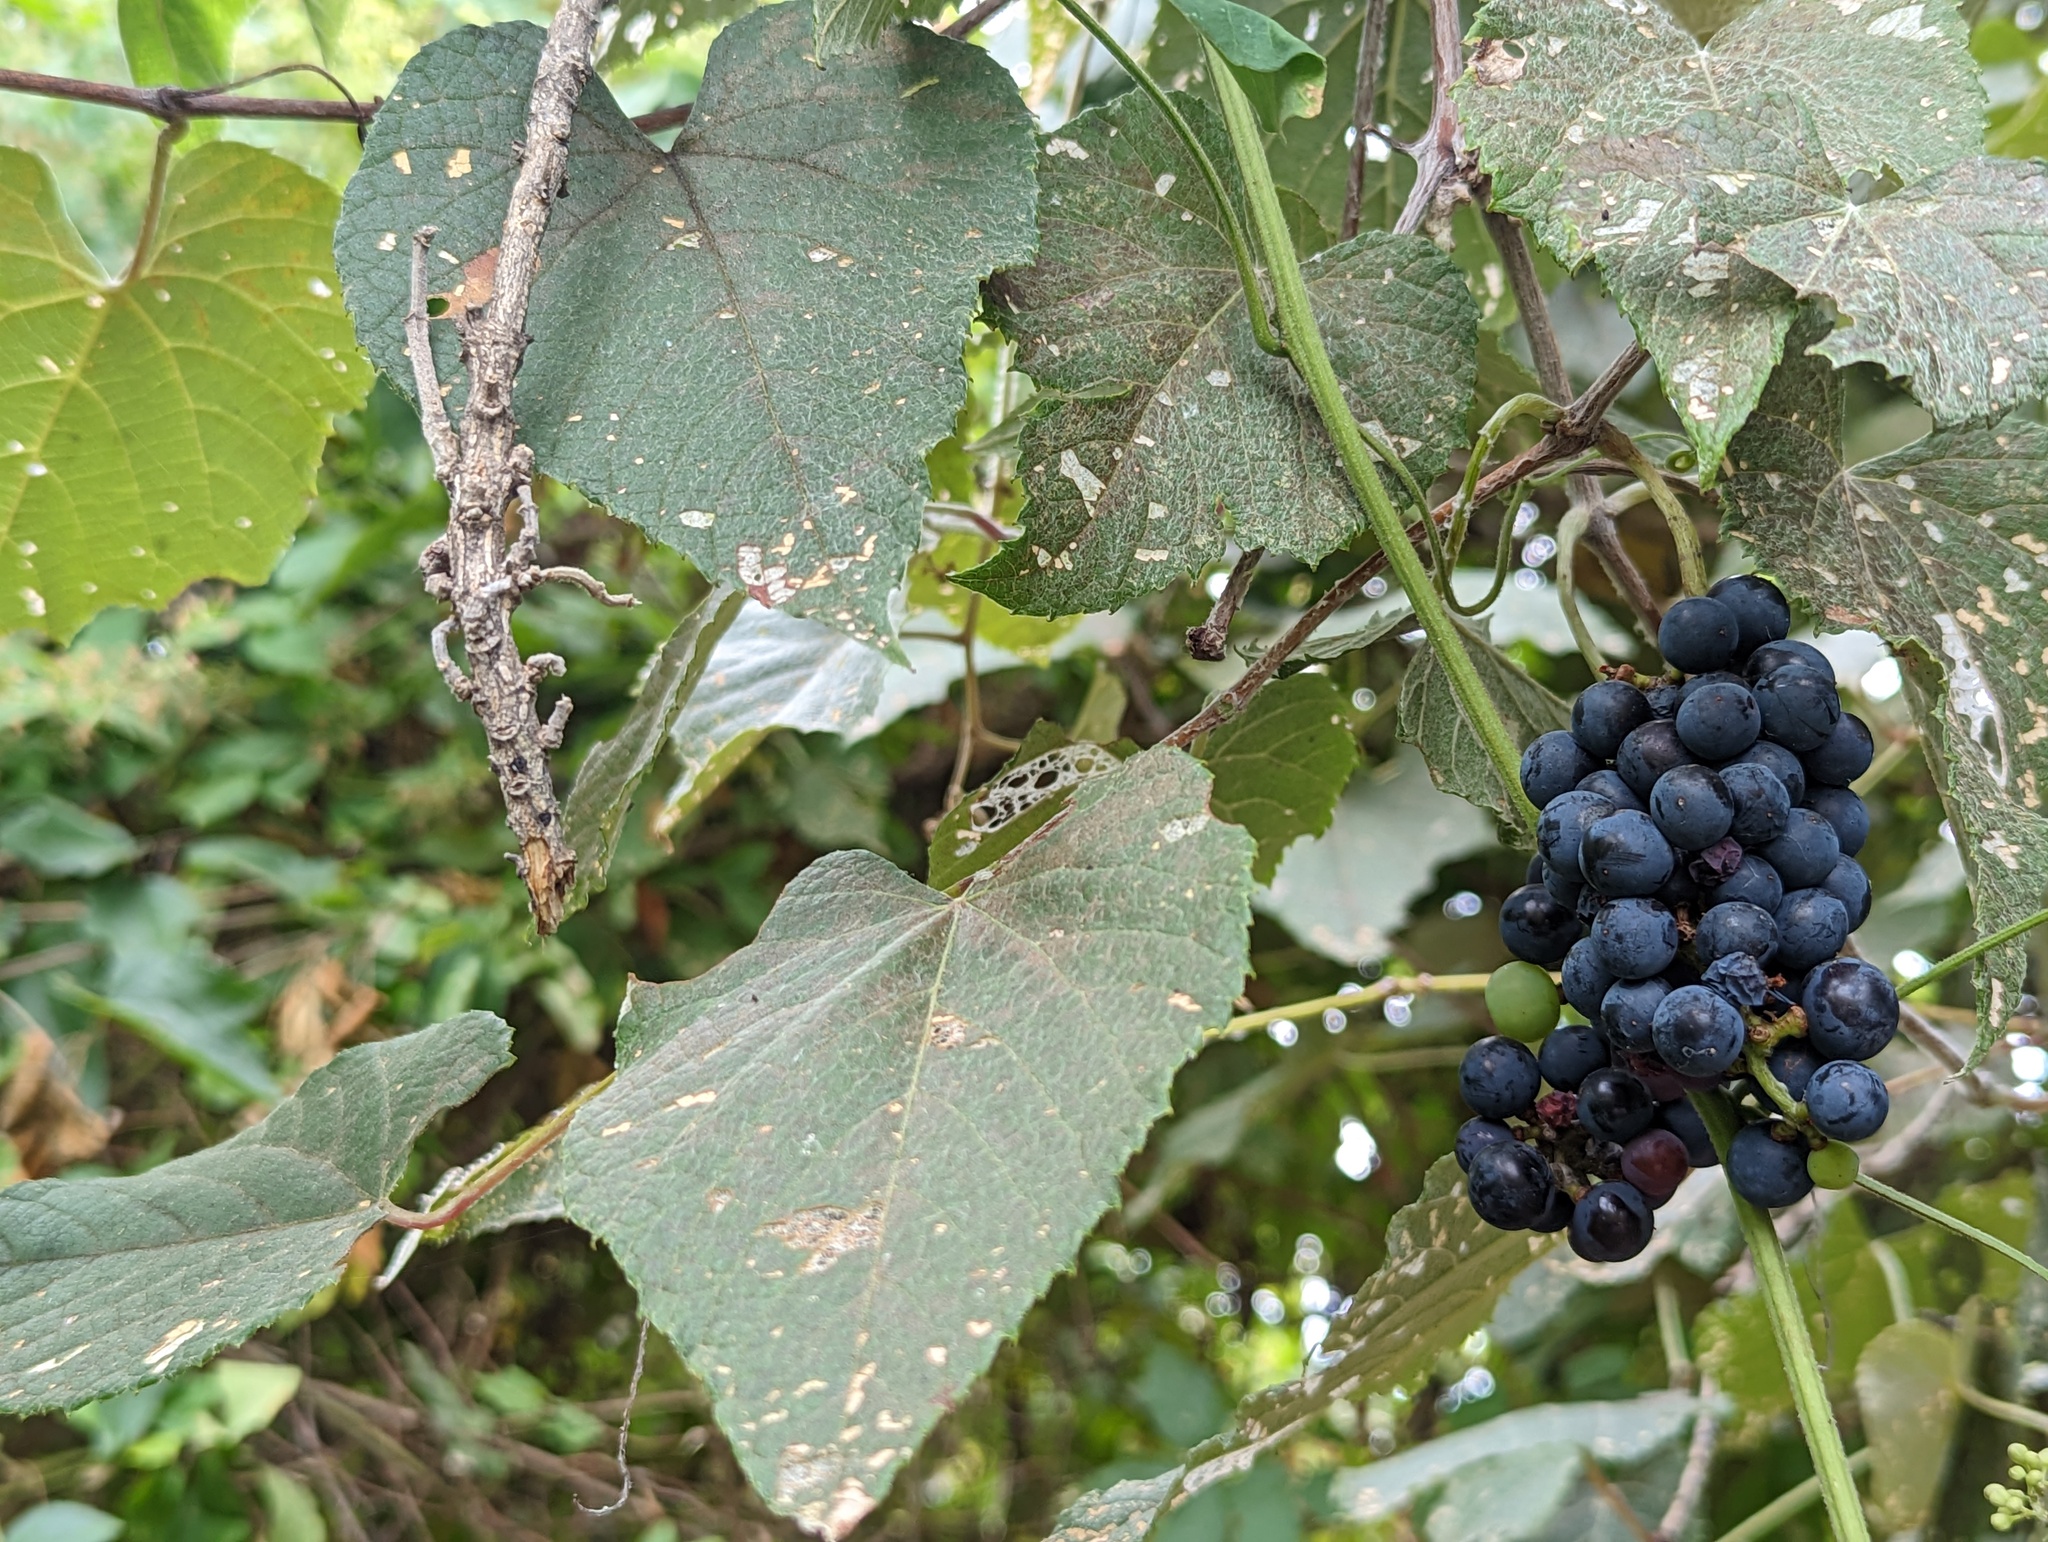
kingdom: Plantae
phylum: Tracheophyta
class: Magnoliopsida
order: Vitales
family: Vitaceae
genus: Vitis
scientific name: Vitis tiliifolia
